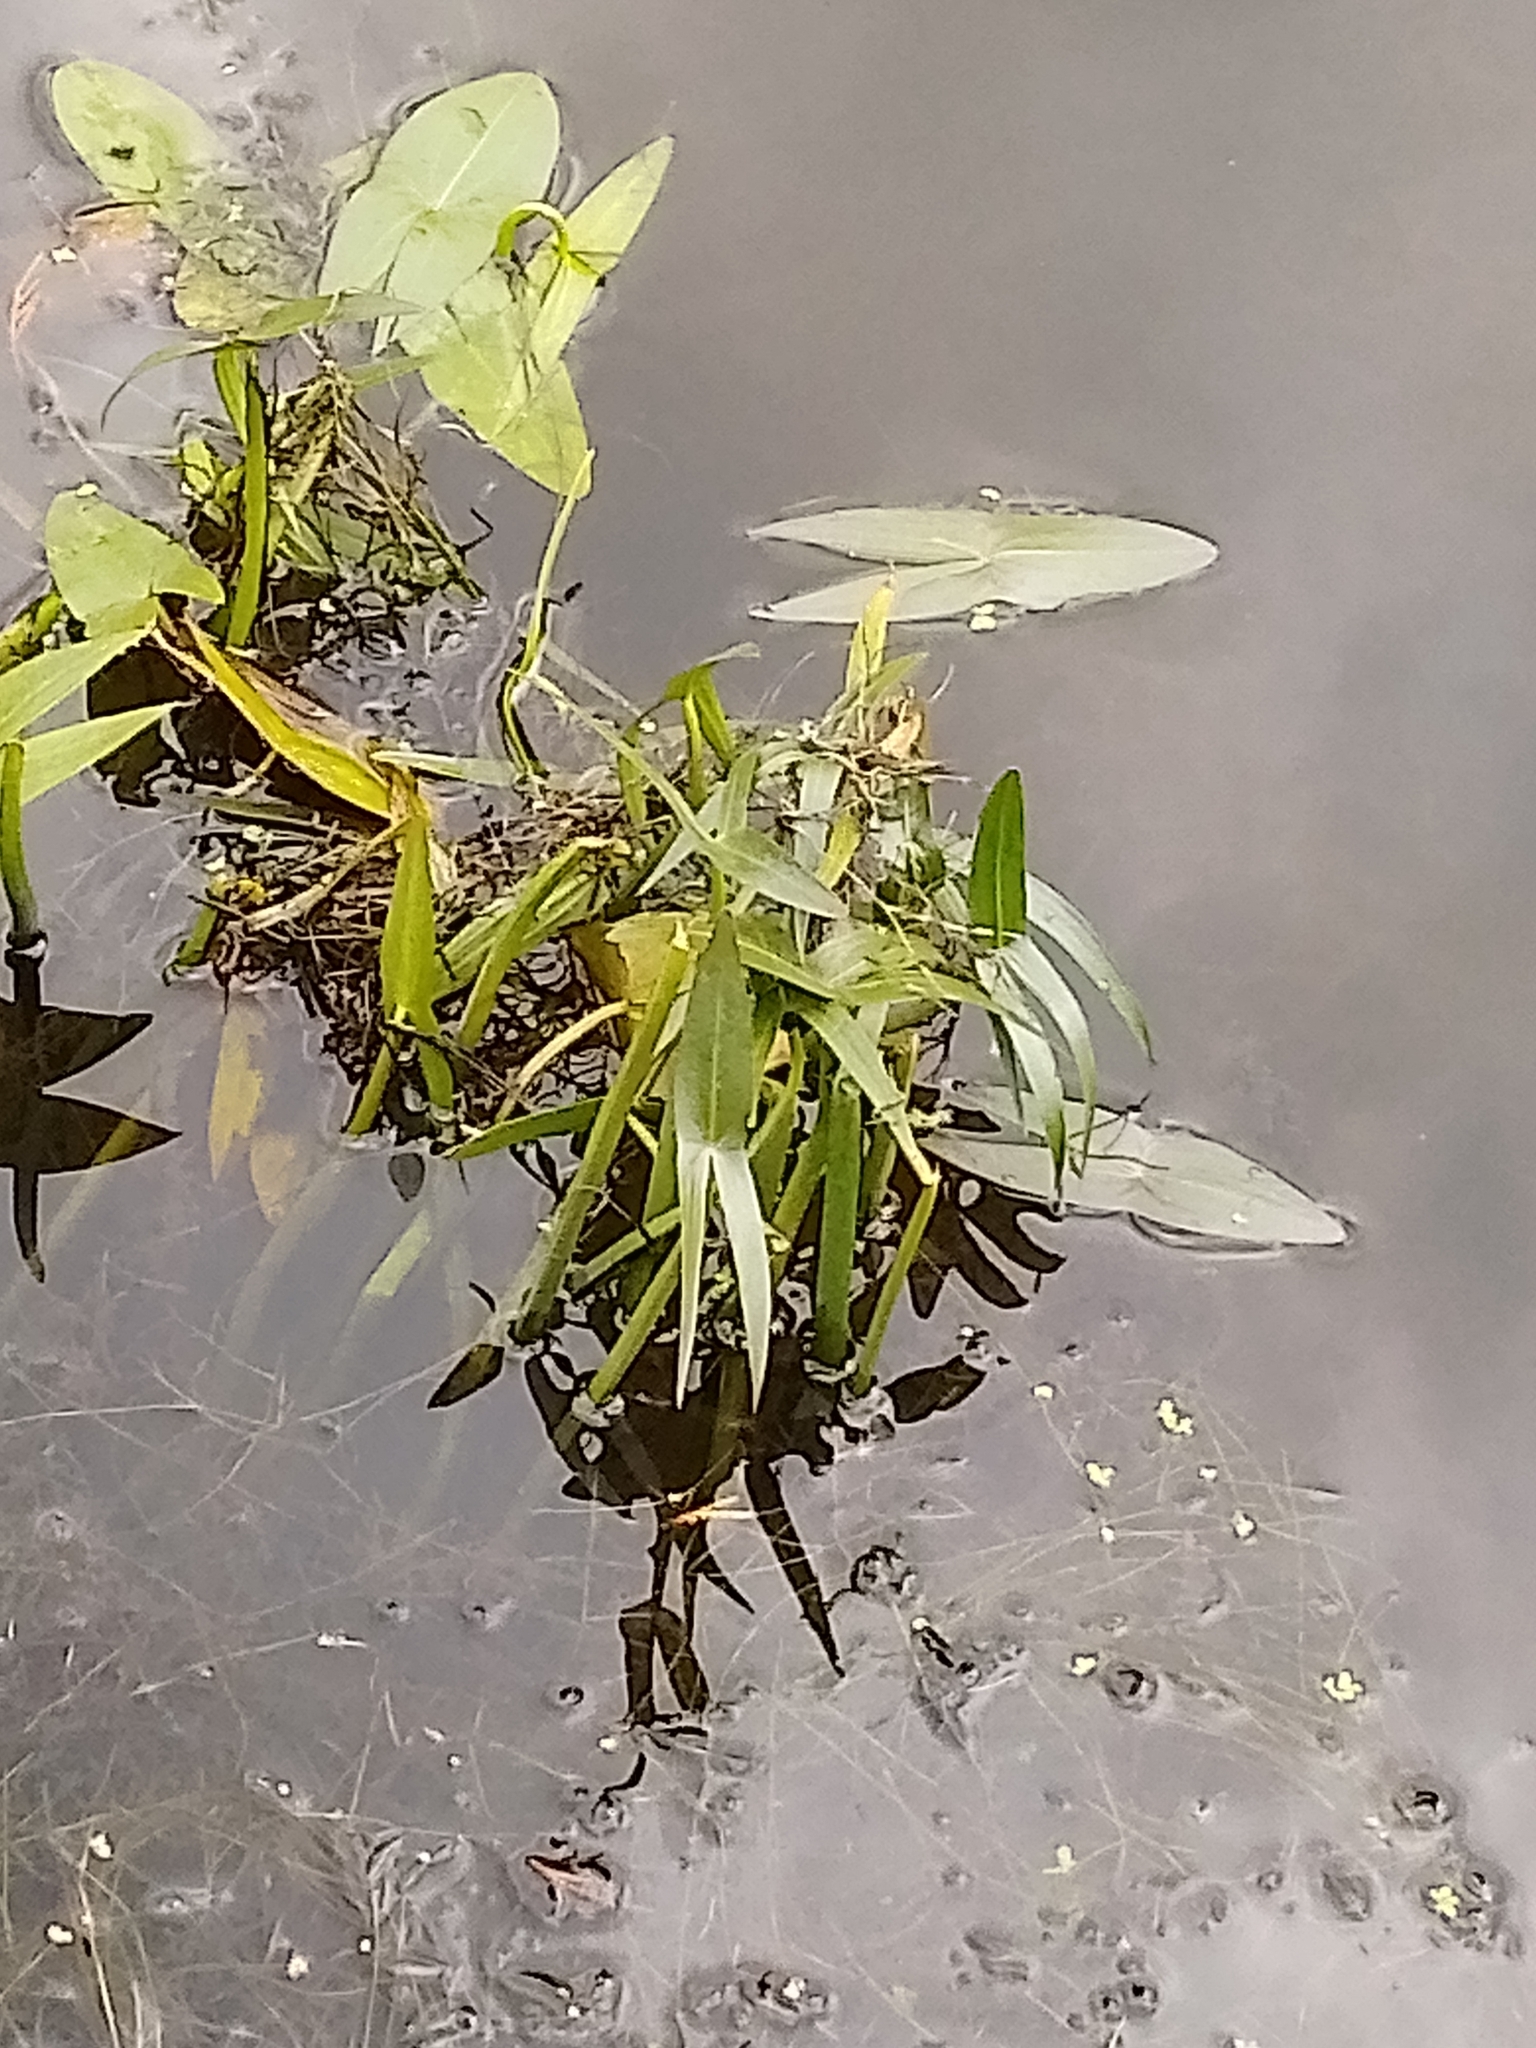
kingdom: Plantae
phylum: Tracheophyta
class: Liliopsida
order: Alismatales
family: Alismataceae
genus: Sagittaria
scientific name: Sagittaria sagittifolia
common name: Arrowhead
